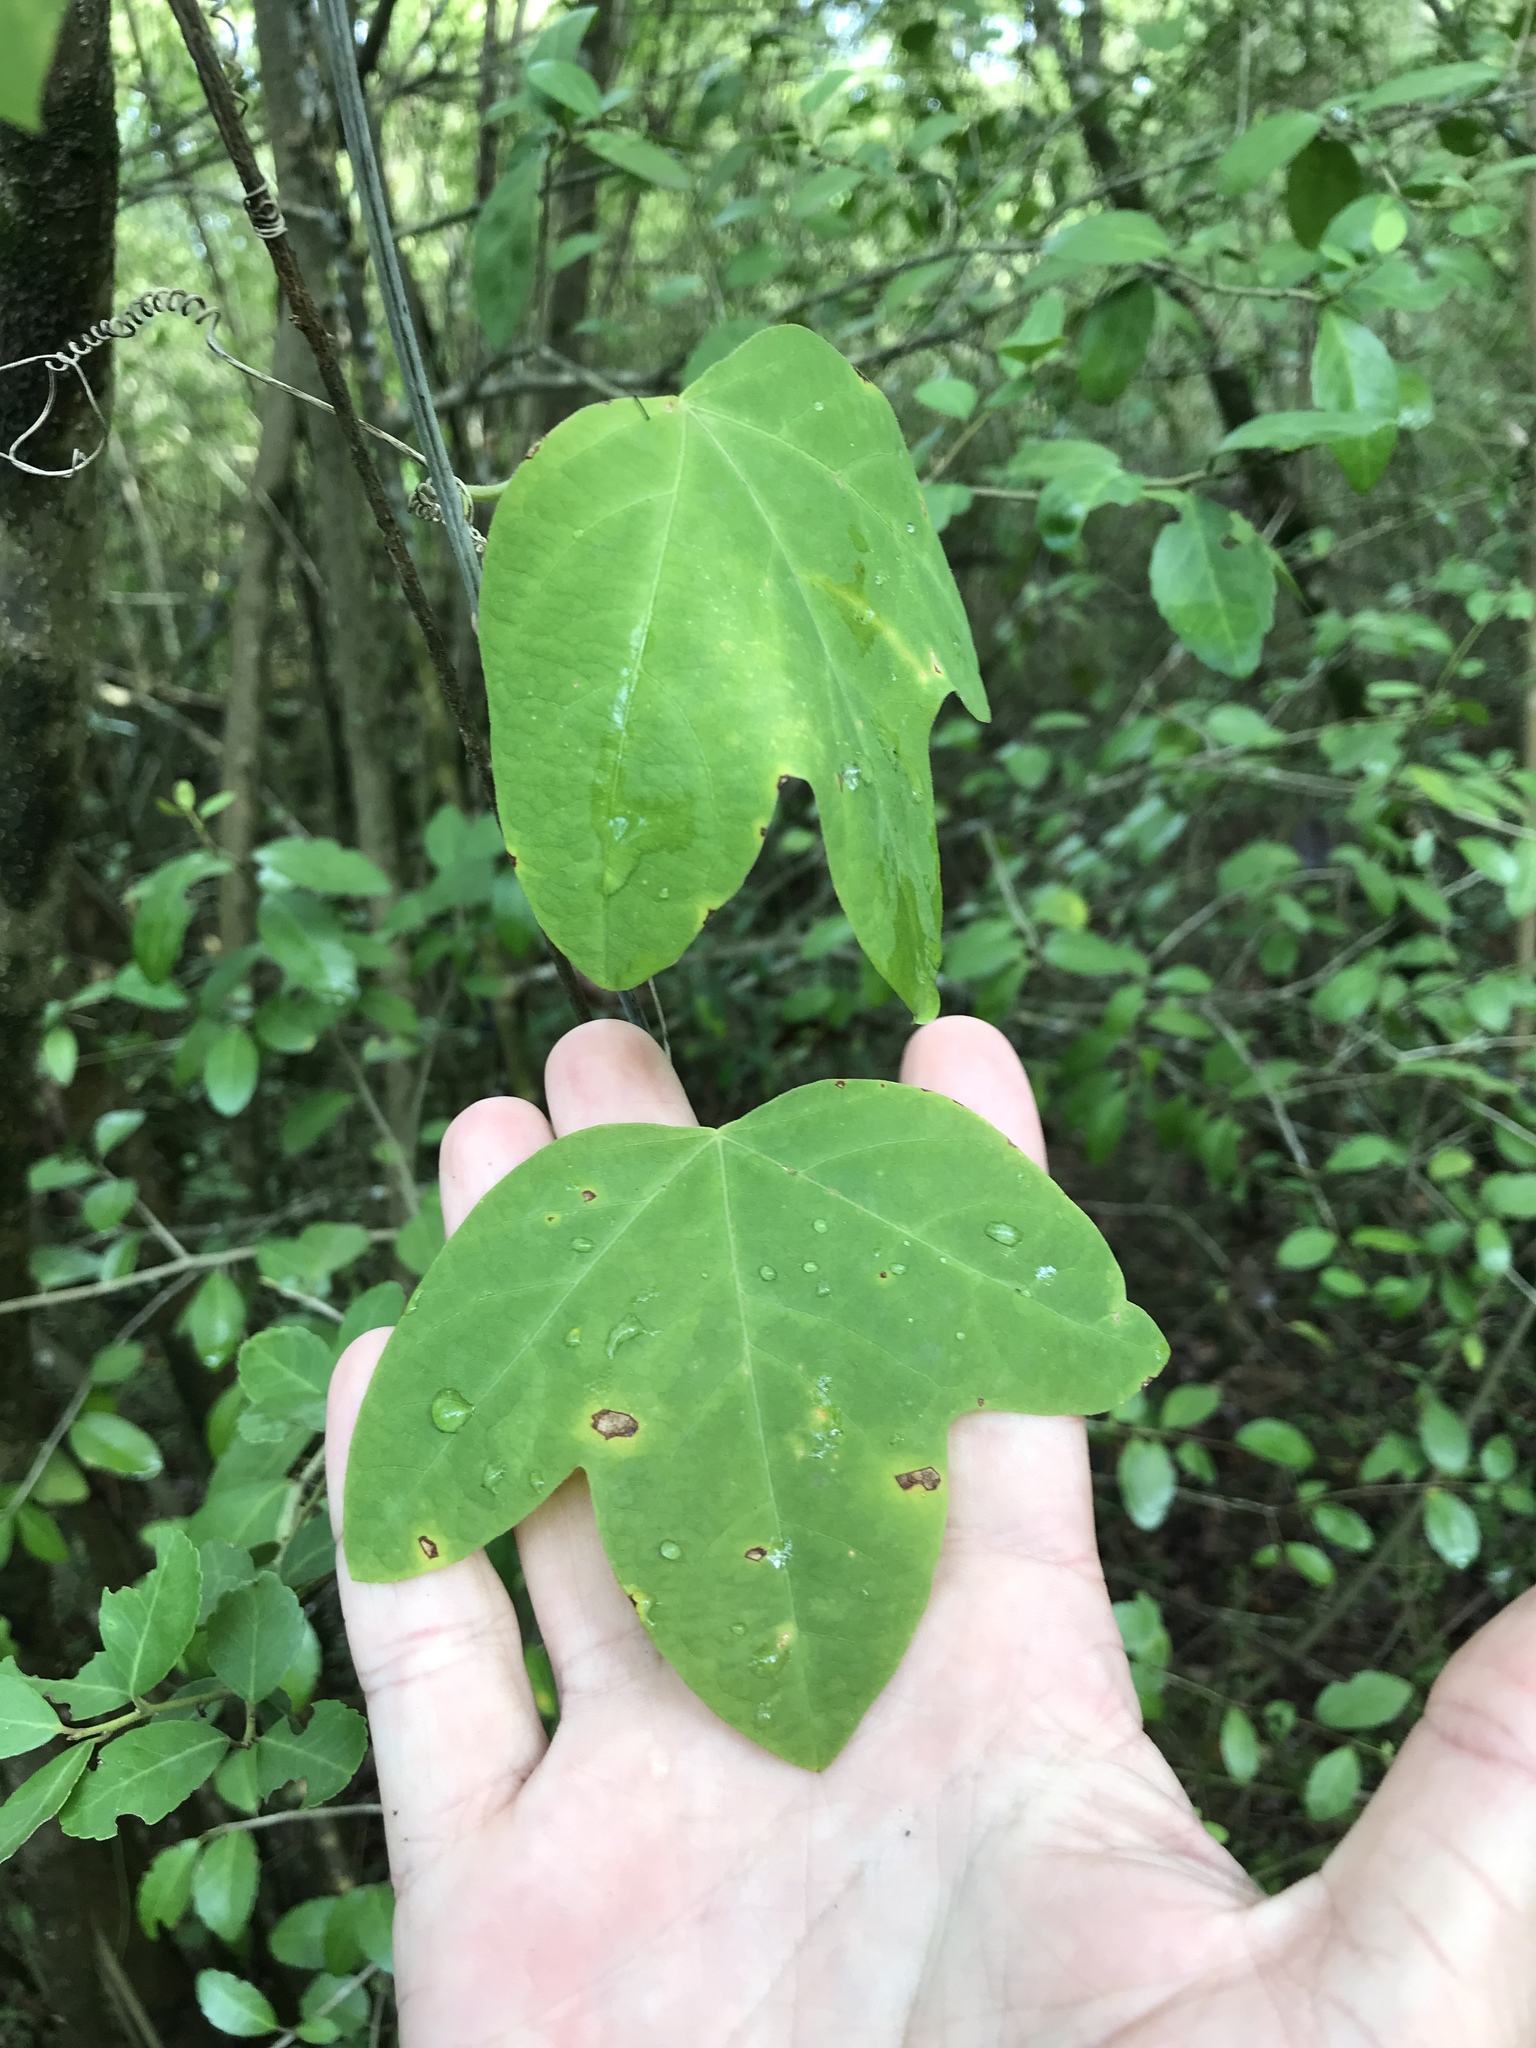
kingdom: Plantae
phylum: Tracheophyta
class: Magnoliopsida
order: Malpighiales
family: Passifloraceae
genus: Passiflora
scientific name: Passiflora lutea
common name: Yellow passionflower
